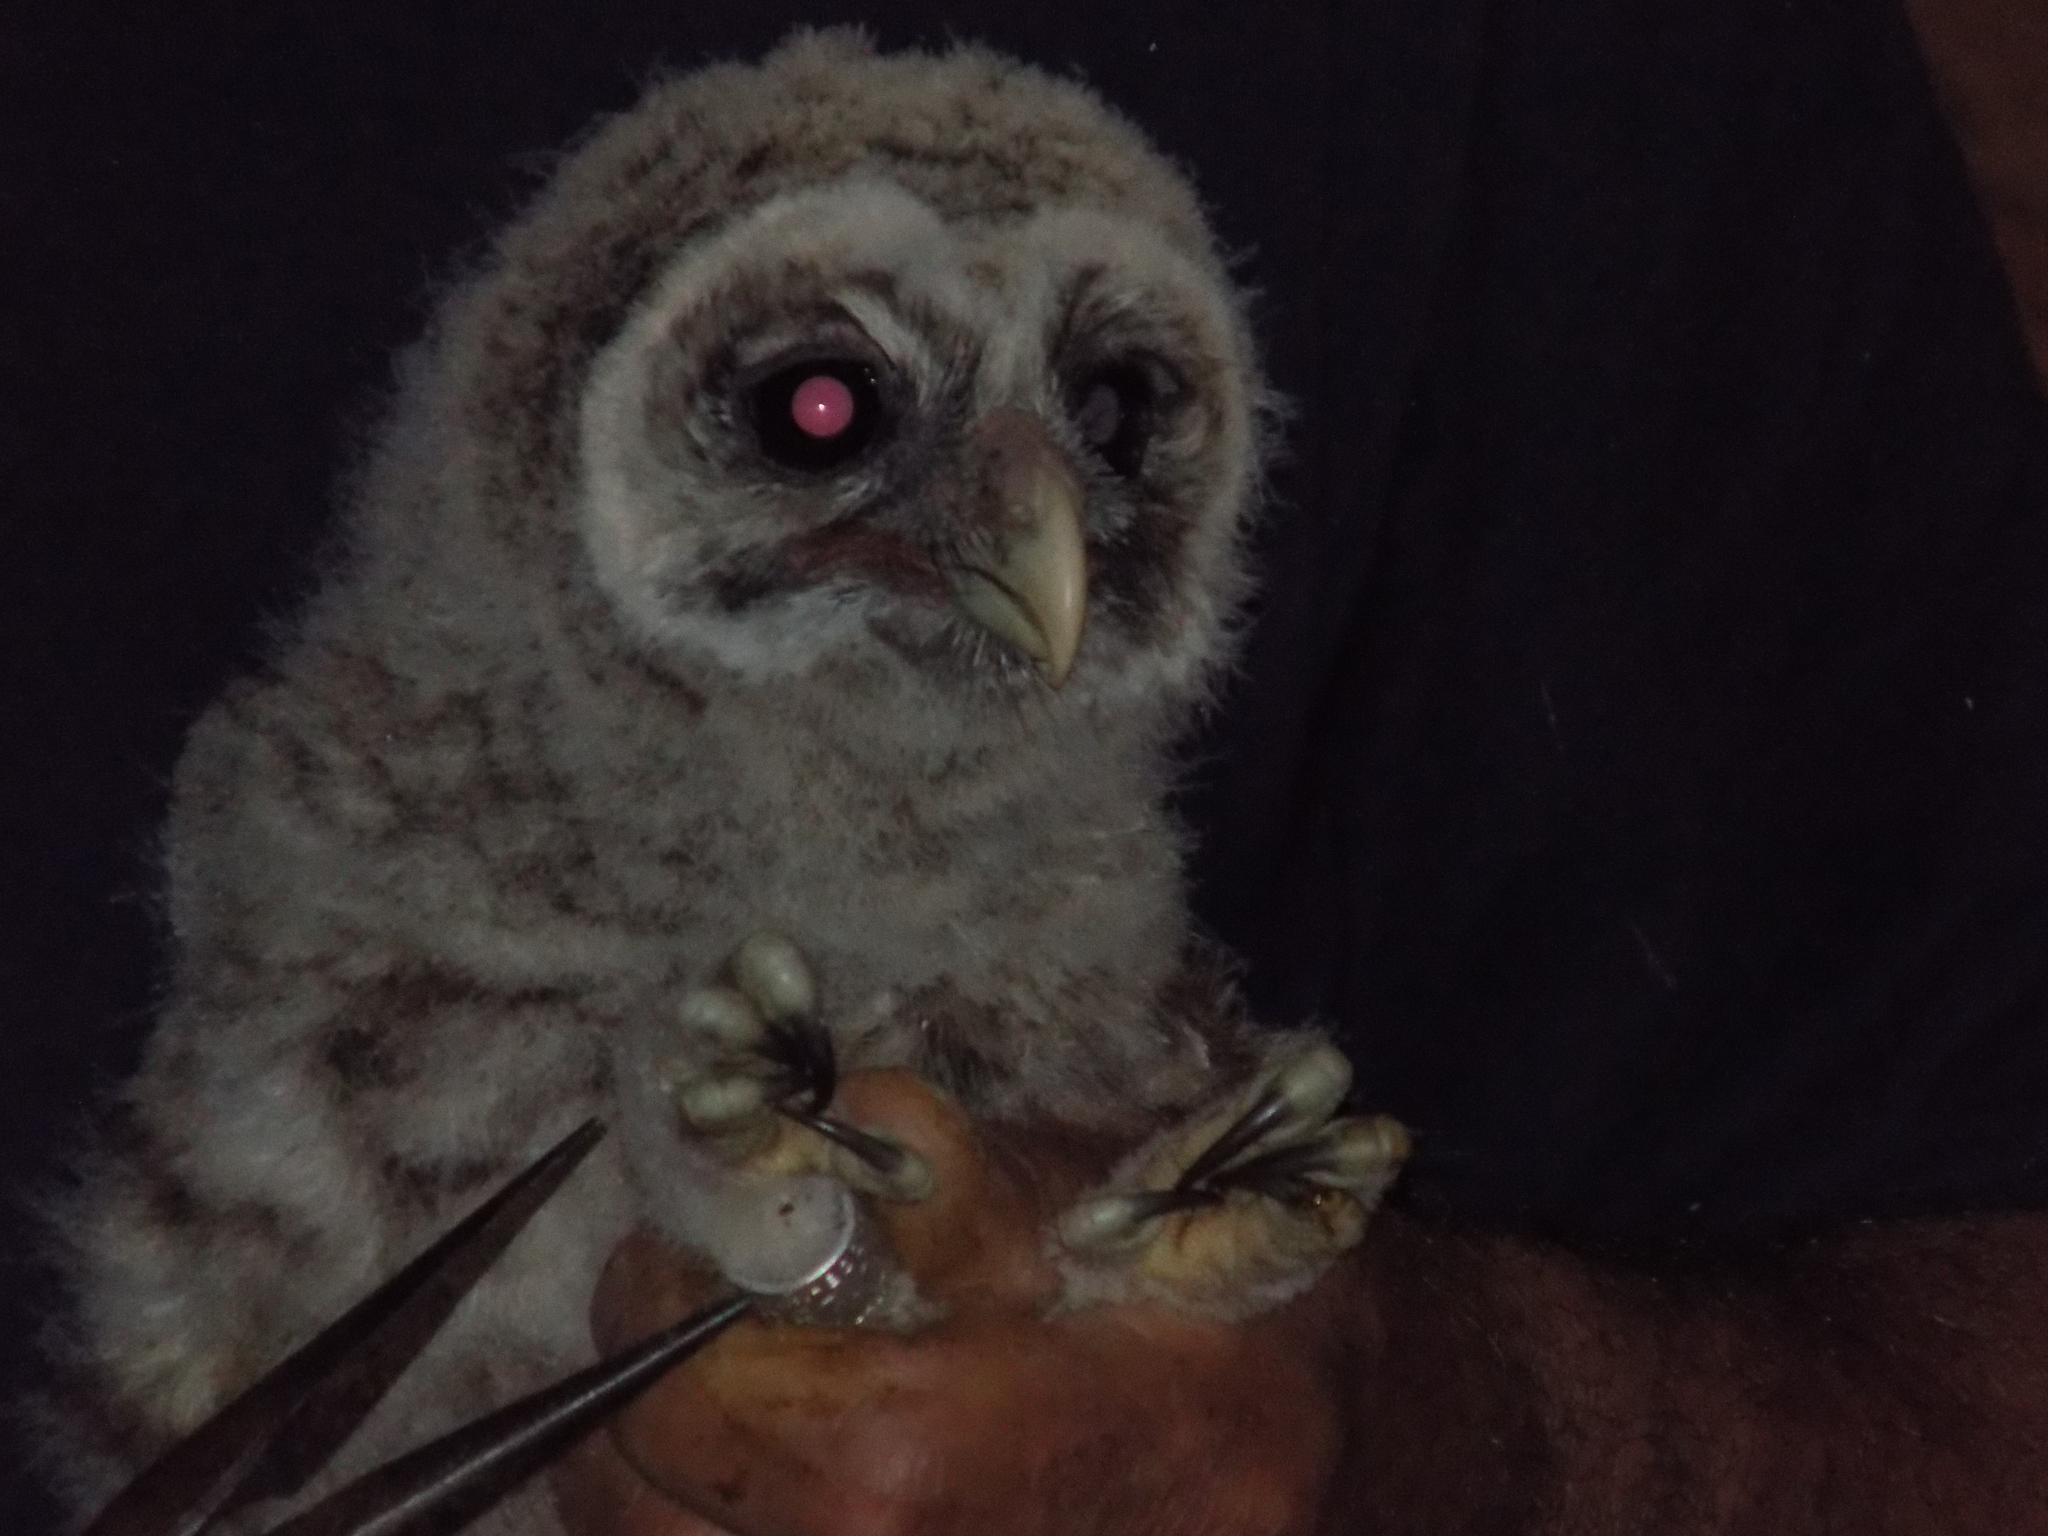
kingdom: Animalia
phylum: Chordata
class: Aves
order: Strigiformes
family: Strigidae
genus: Strix
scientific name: Strix varia
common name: Barred owl
